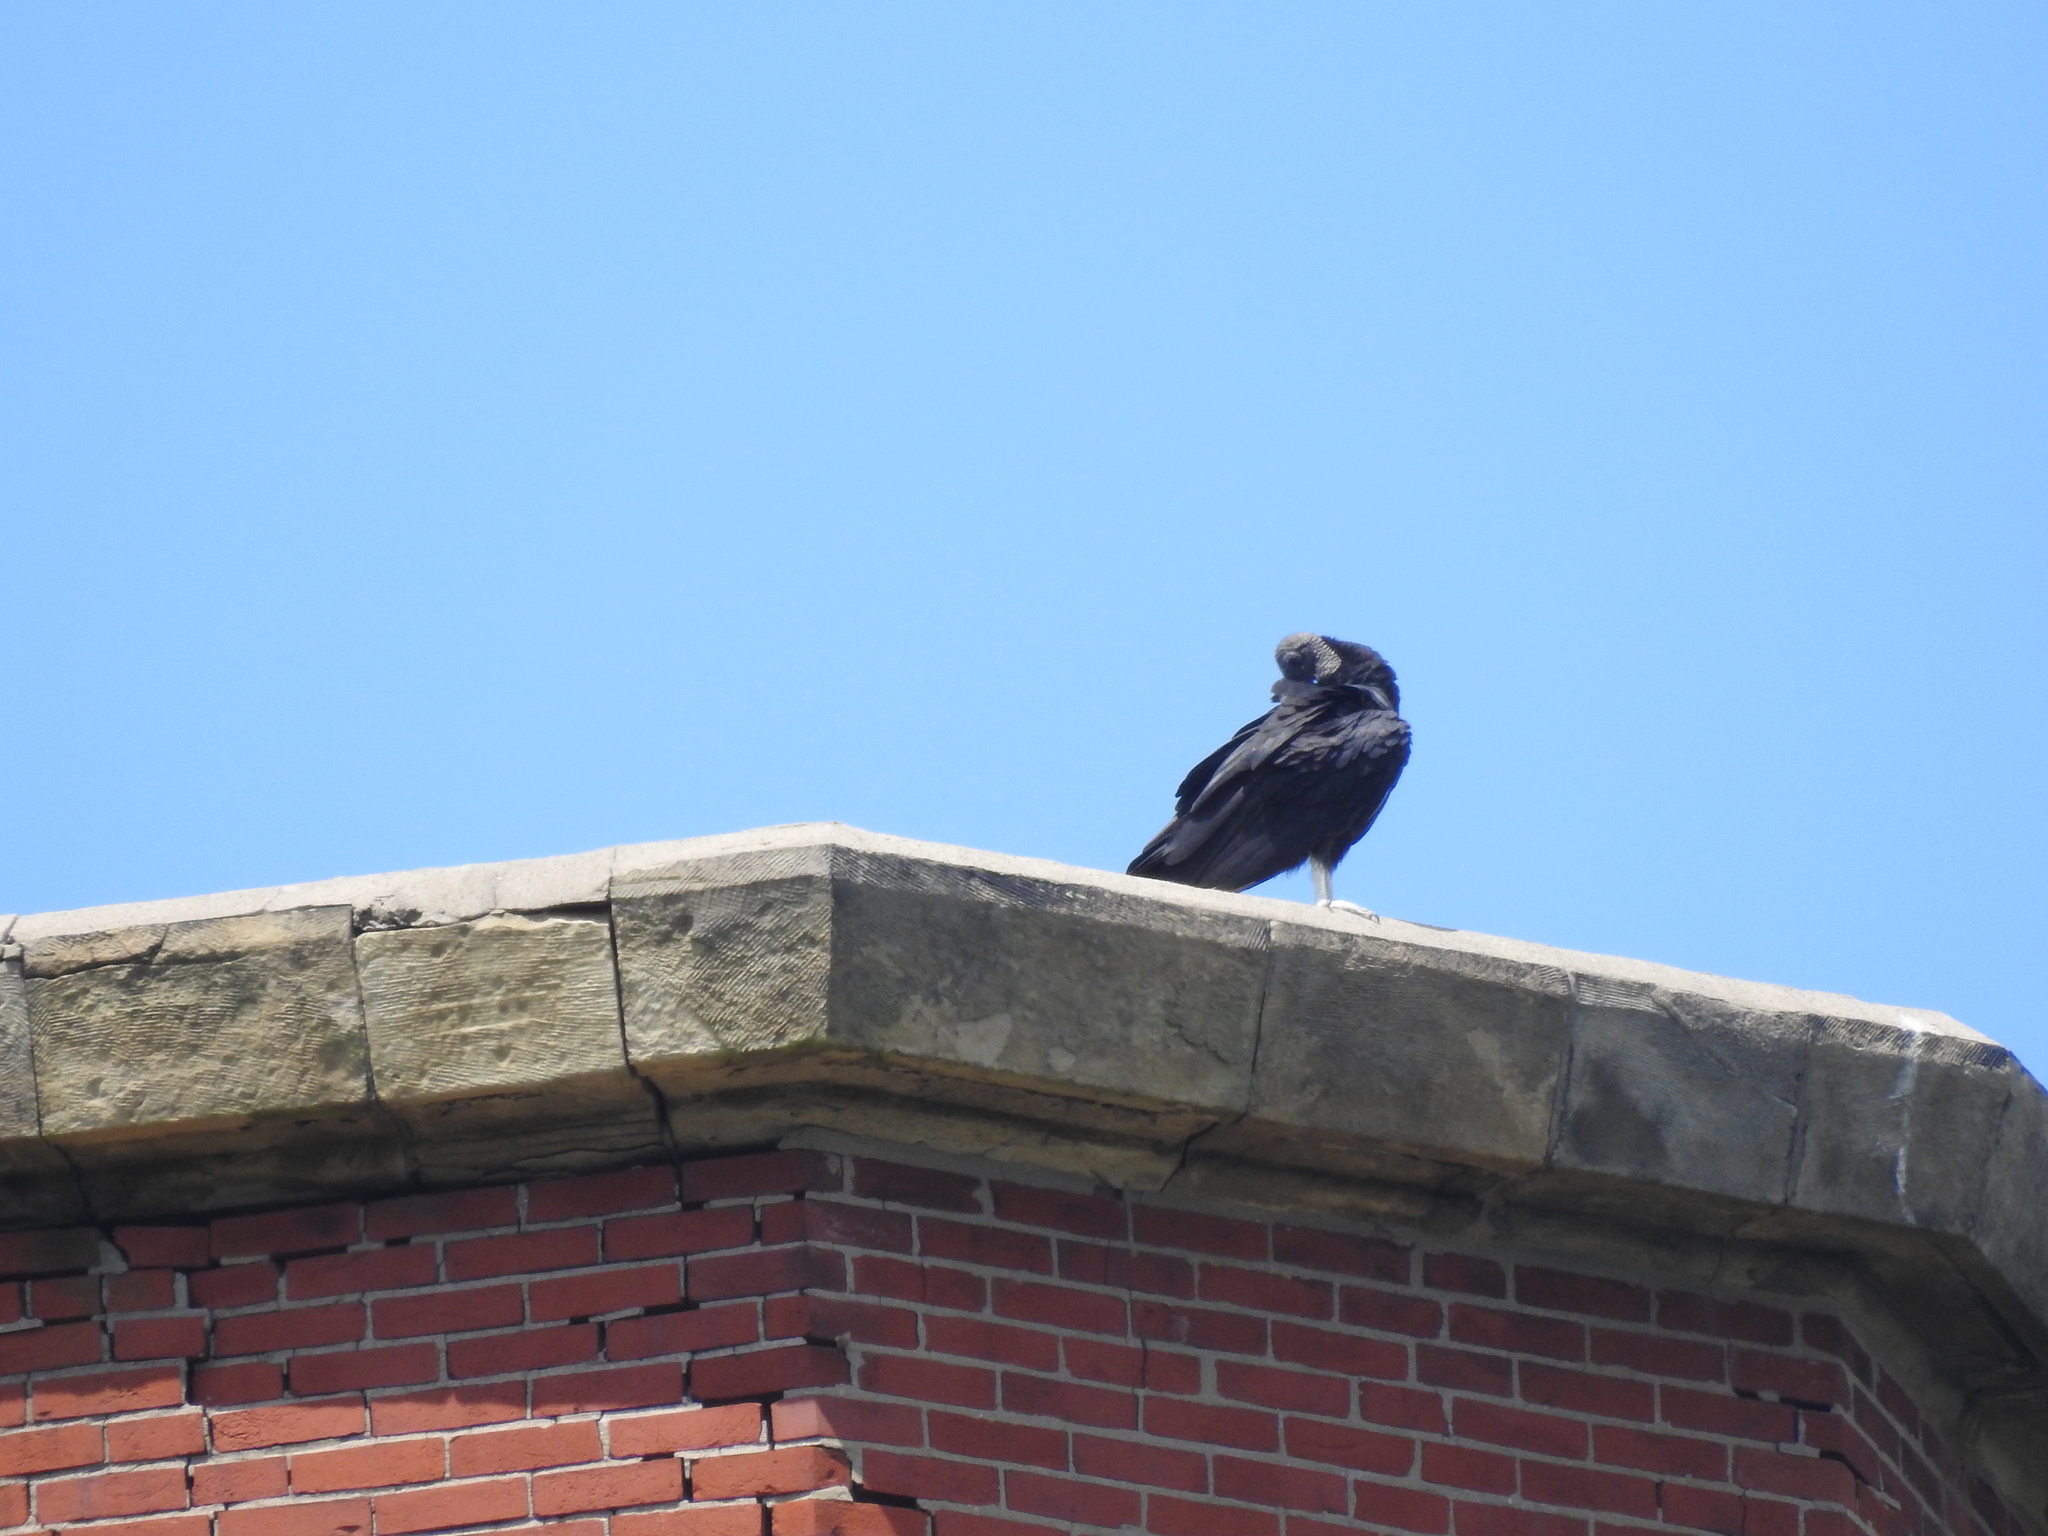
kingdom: Animalia
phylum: Chordata
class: Aves
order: Accipitriformes
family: Cathartidae
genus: Coragyps
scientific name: Coragyps atratus
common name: Black vulture
